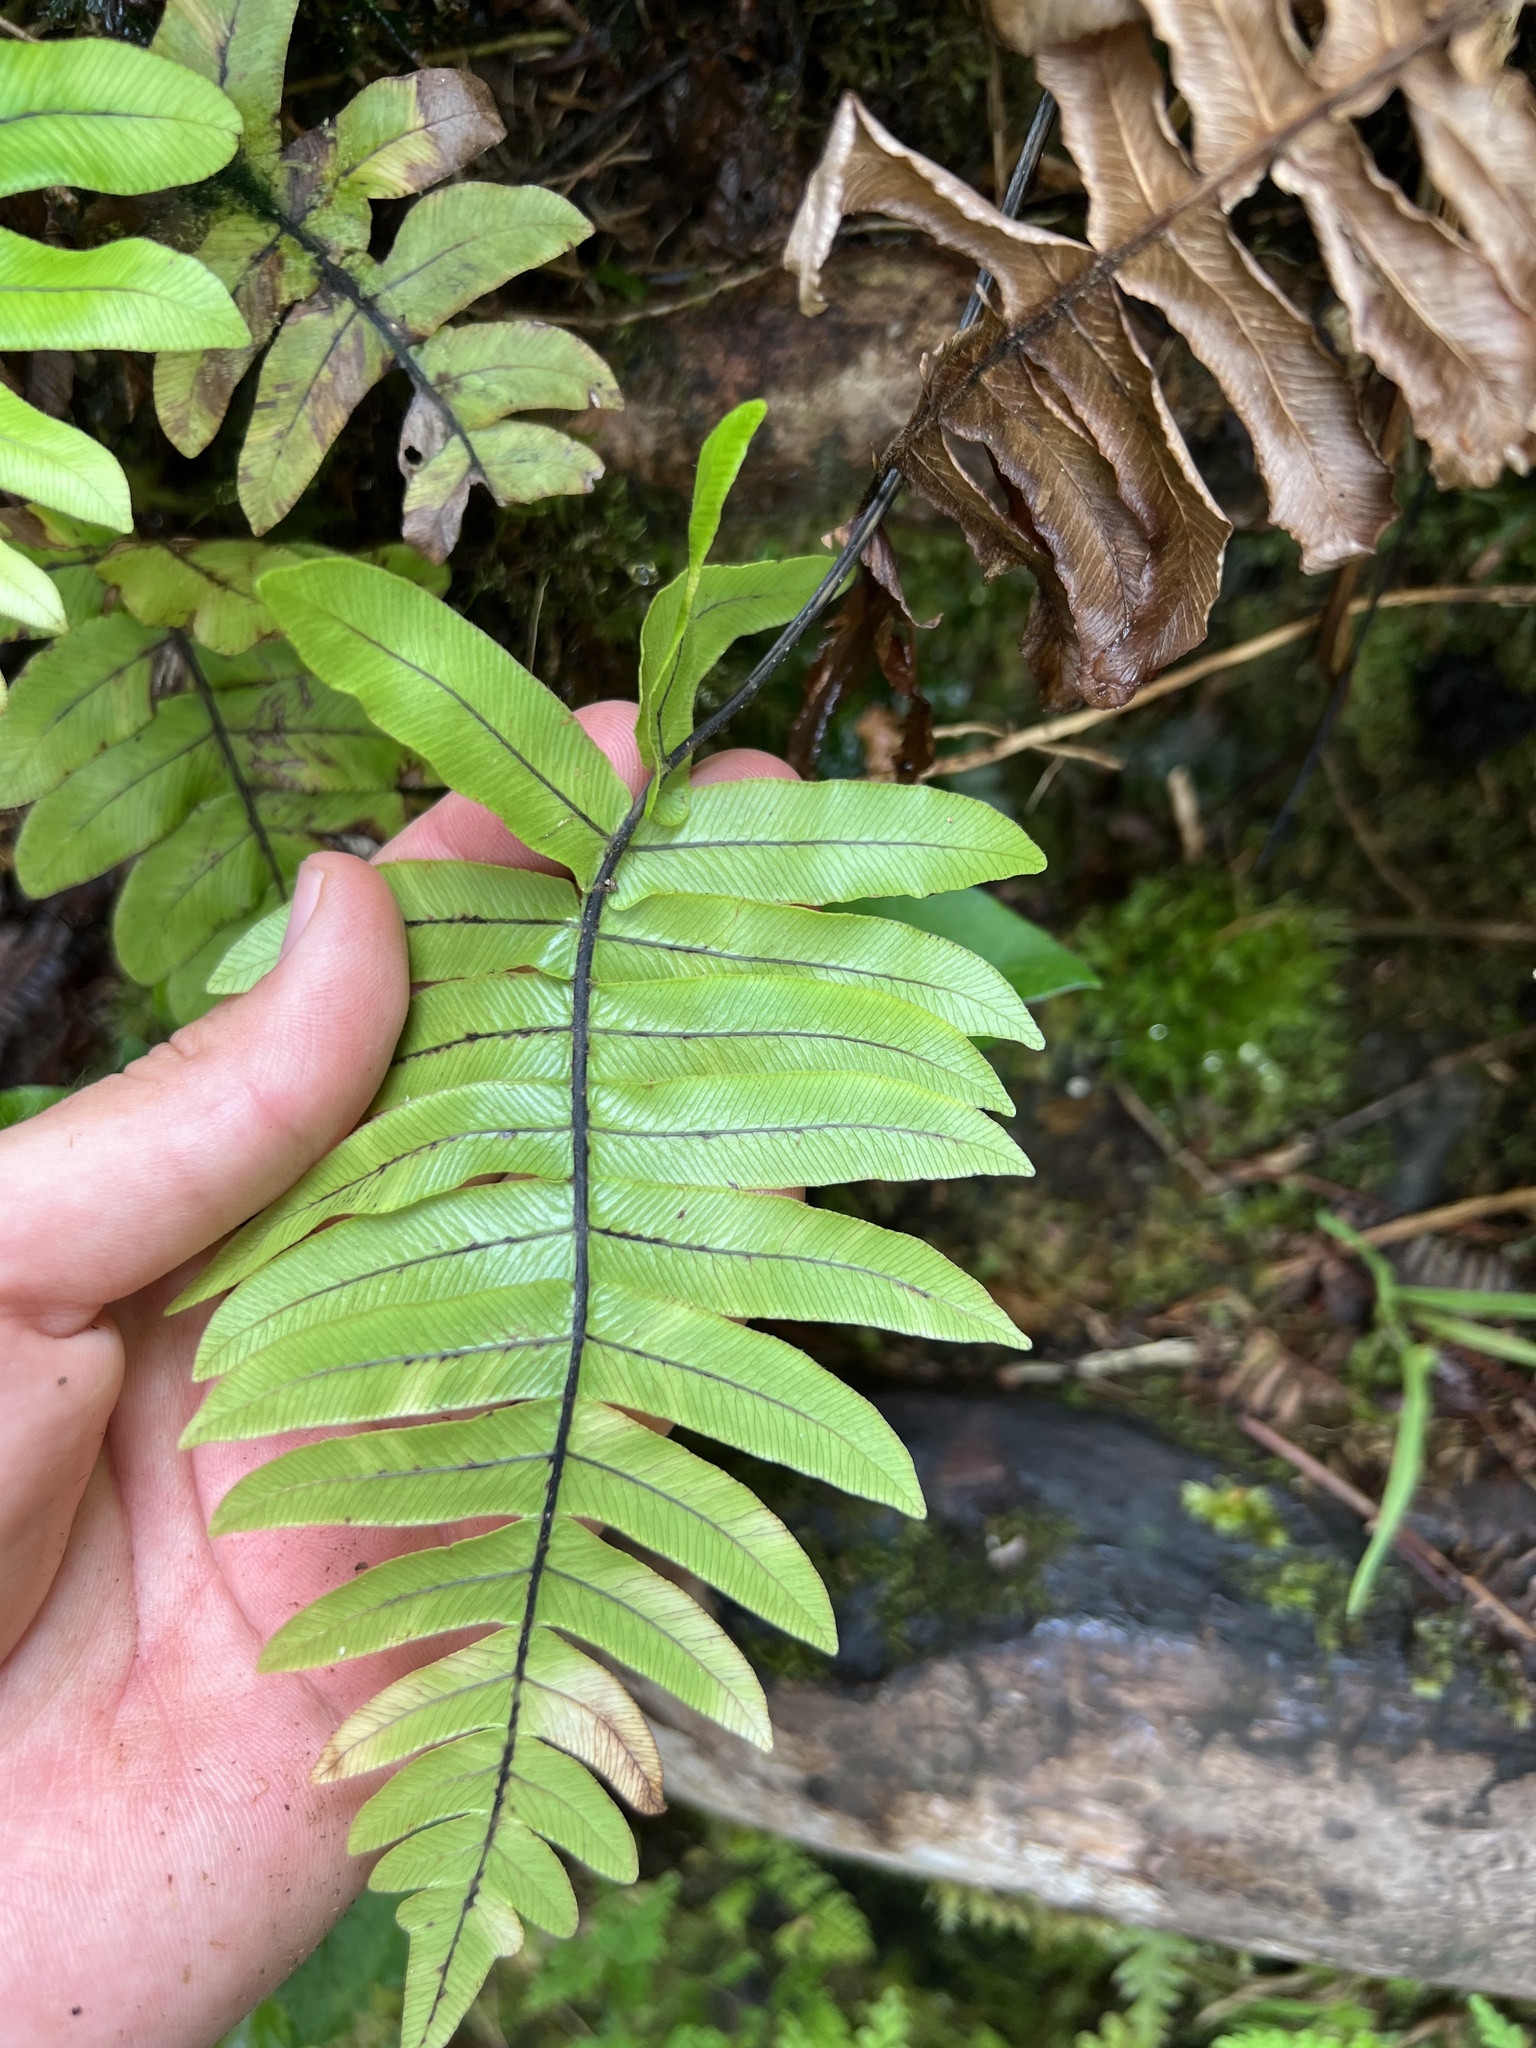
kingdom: Plantae
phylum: Tracheophyta
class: Polypodiopsida
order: Polypodiales
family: Blechnaceae
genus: Cranfillia
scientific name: Cranfillia glabrescens
